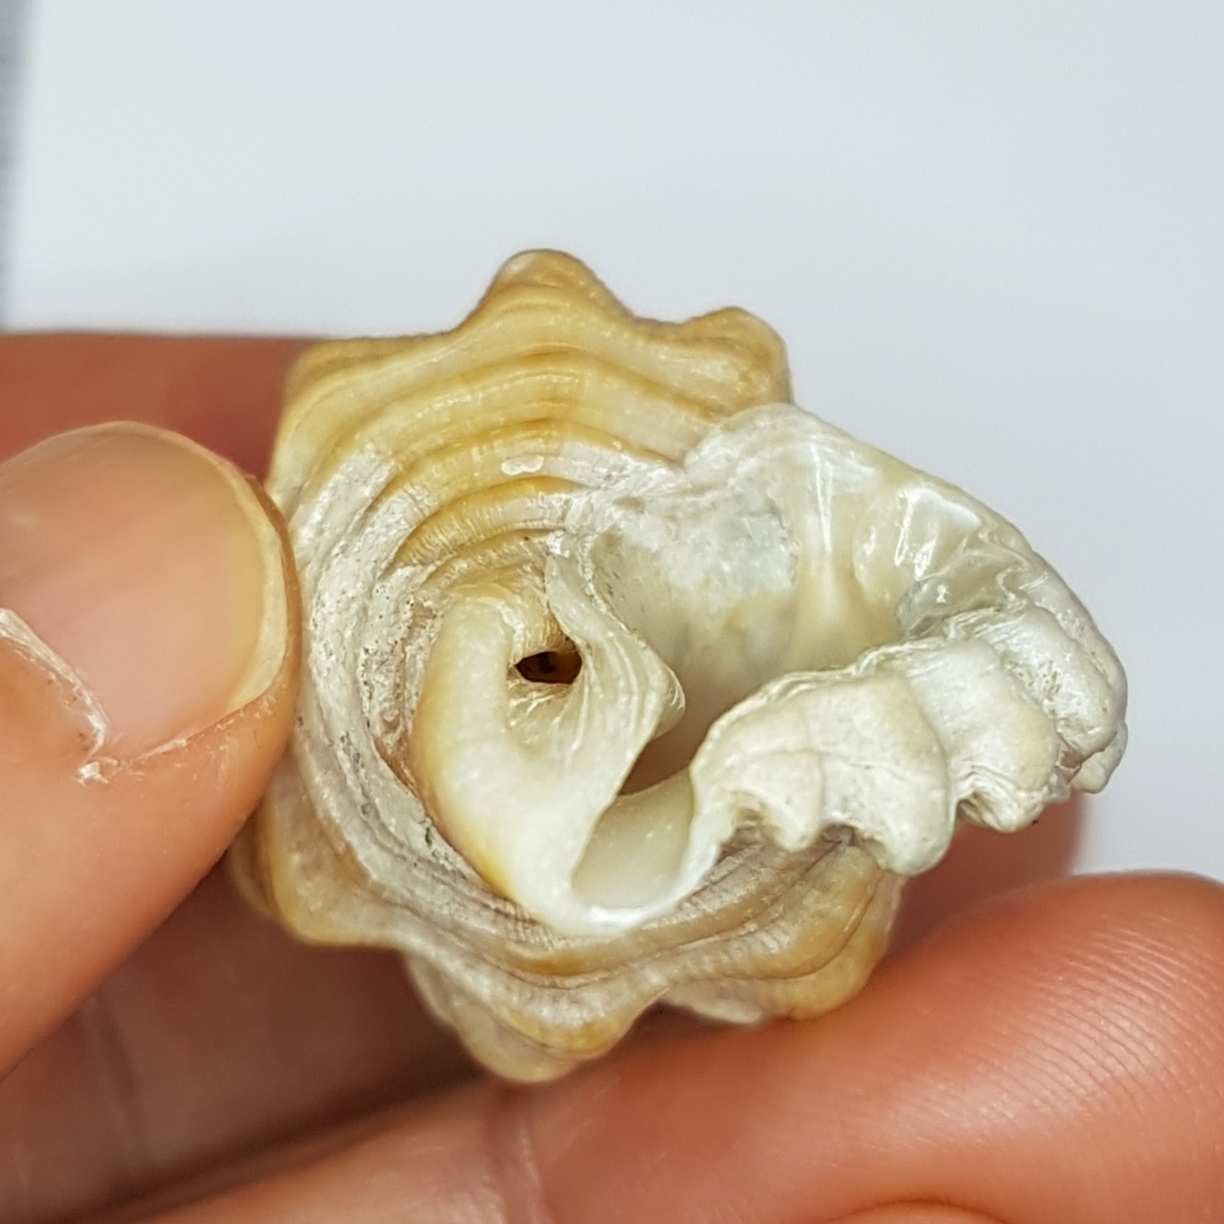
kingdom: Animalia
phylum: Mollusca
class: Gastropoda
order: Littorinimorpha
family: Cymatiidae
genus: Cabestana
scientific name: Cabestana cutacea
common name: Mediterranean bark triton
